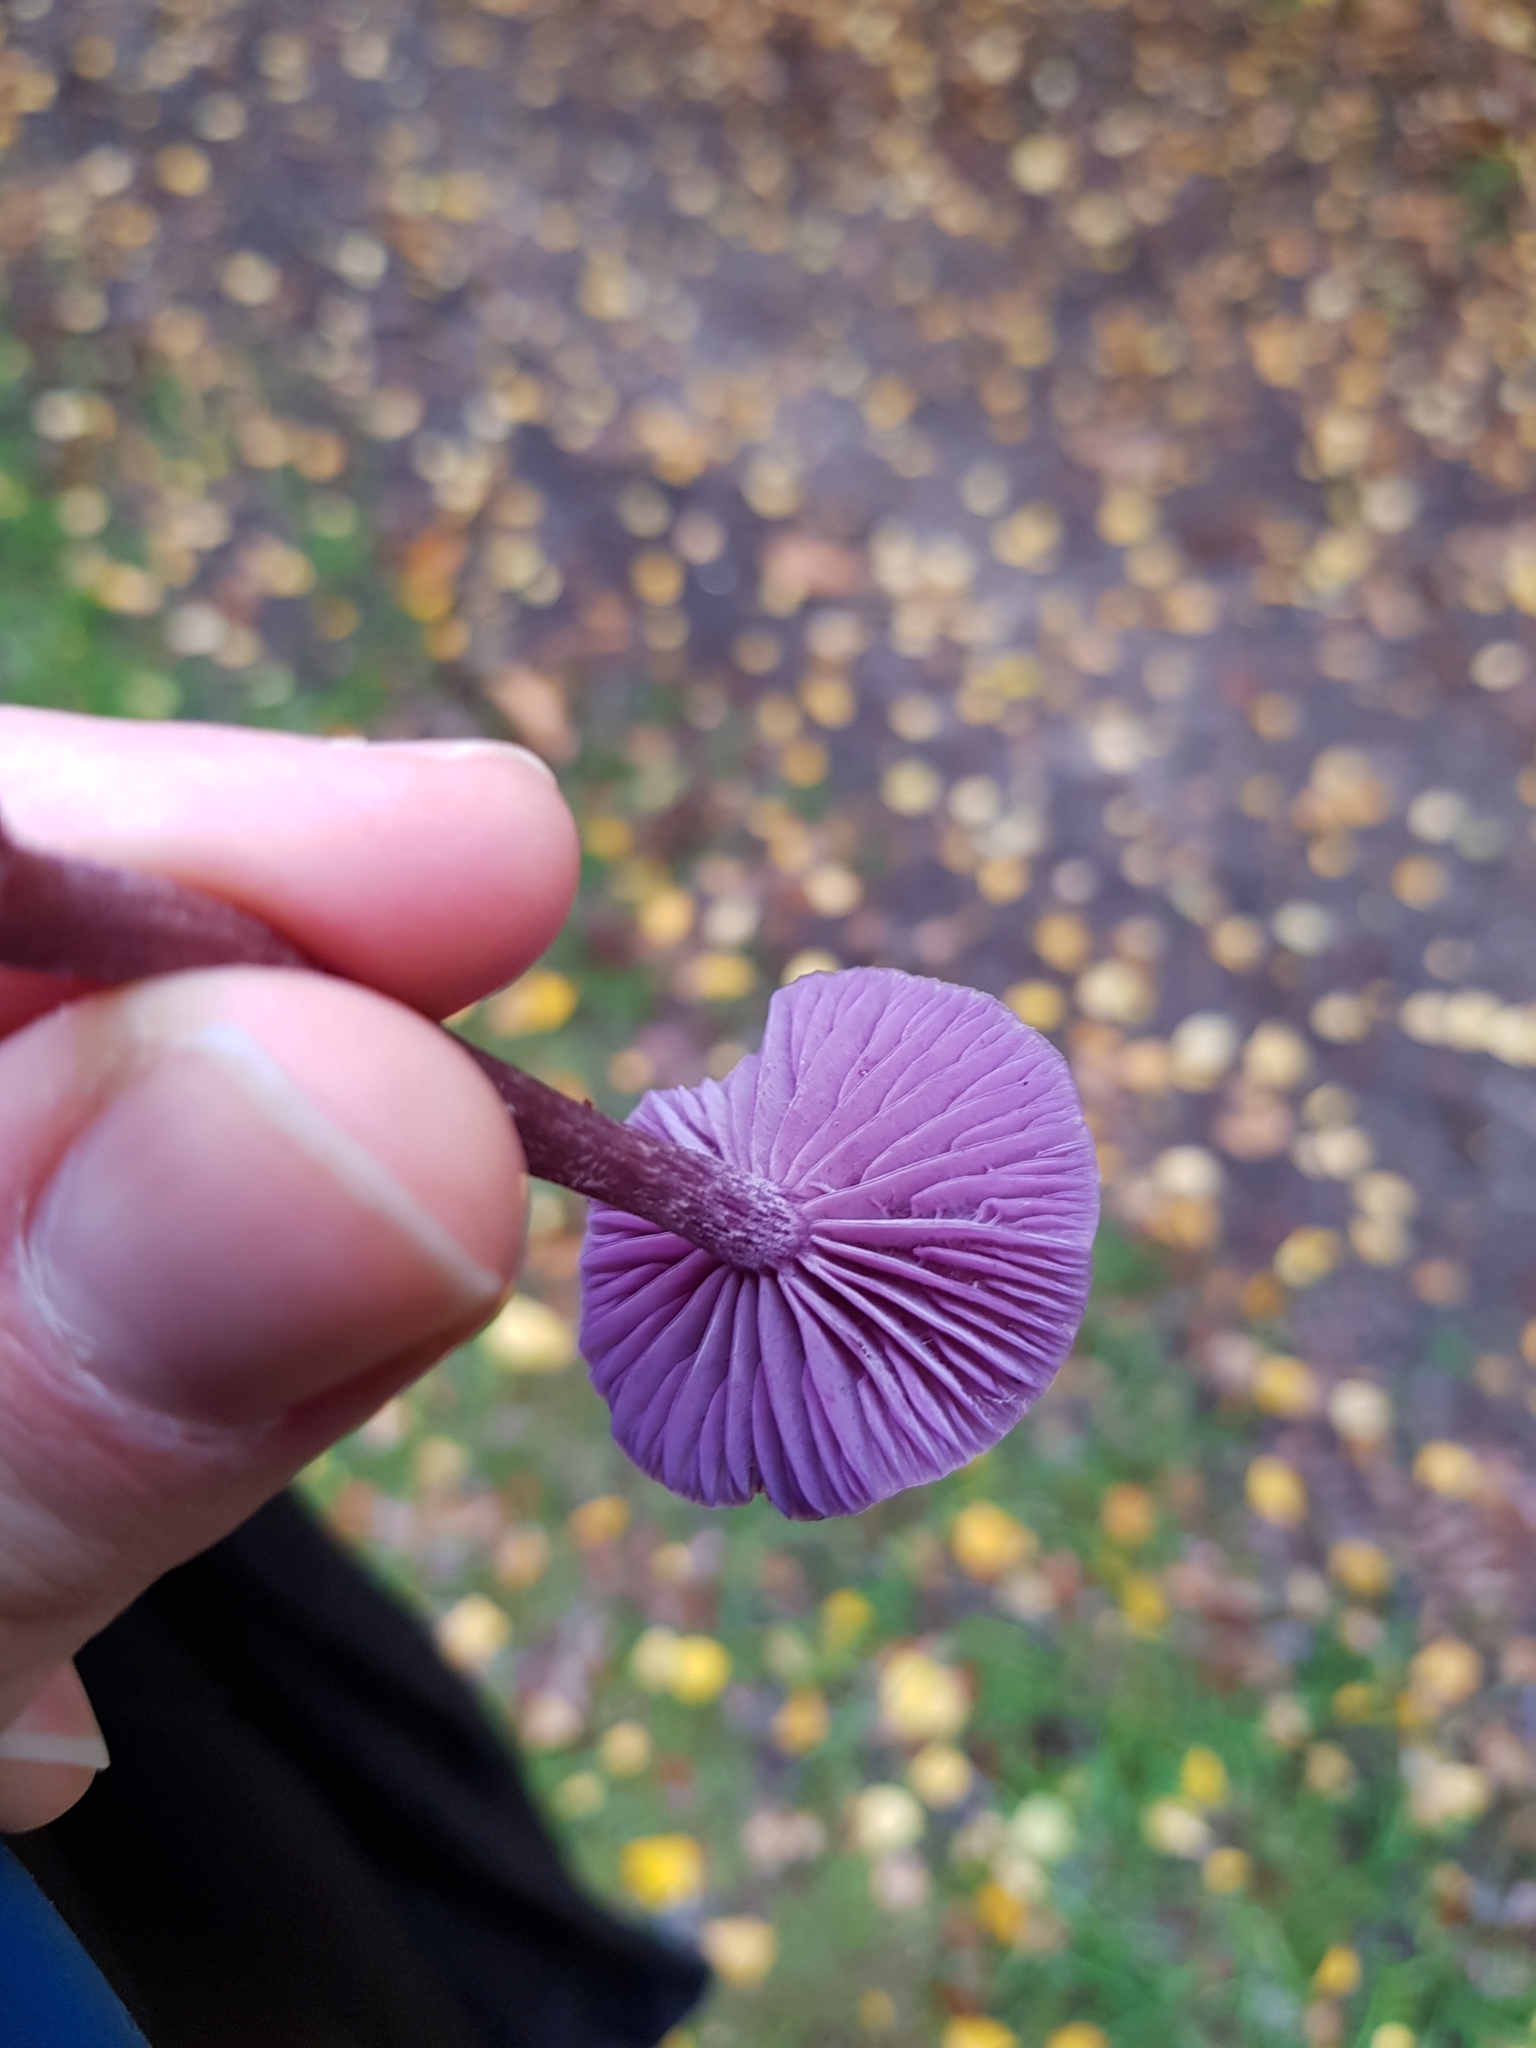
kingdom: Fungi
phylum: Basidiomycota
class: Agaricomycetes
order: Agaricales
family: Hydnangiaceae
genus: Laccaria
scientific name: Laccaria amethystina
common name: Amethyst deceiver
